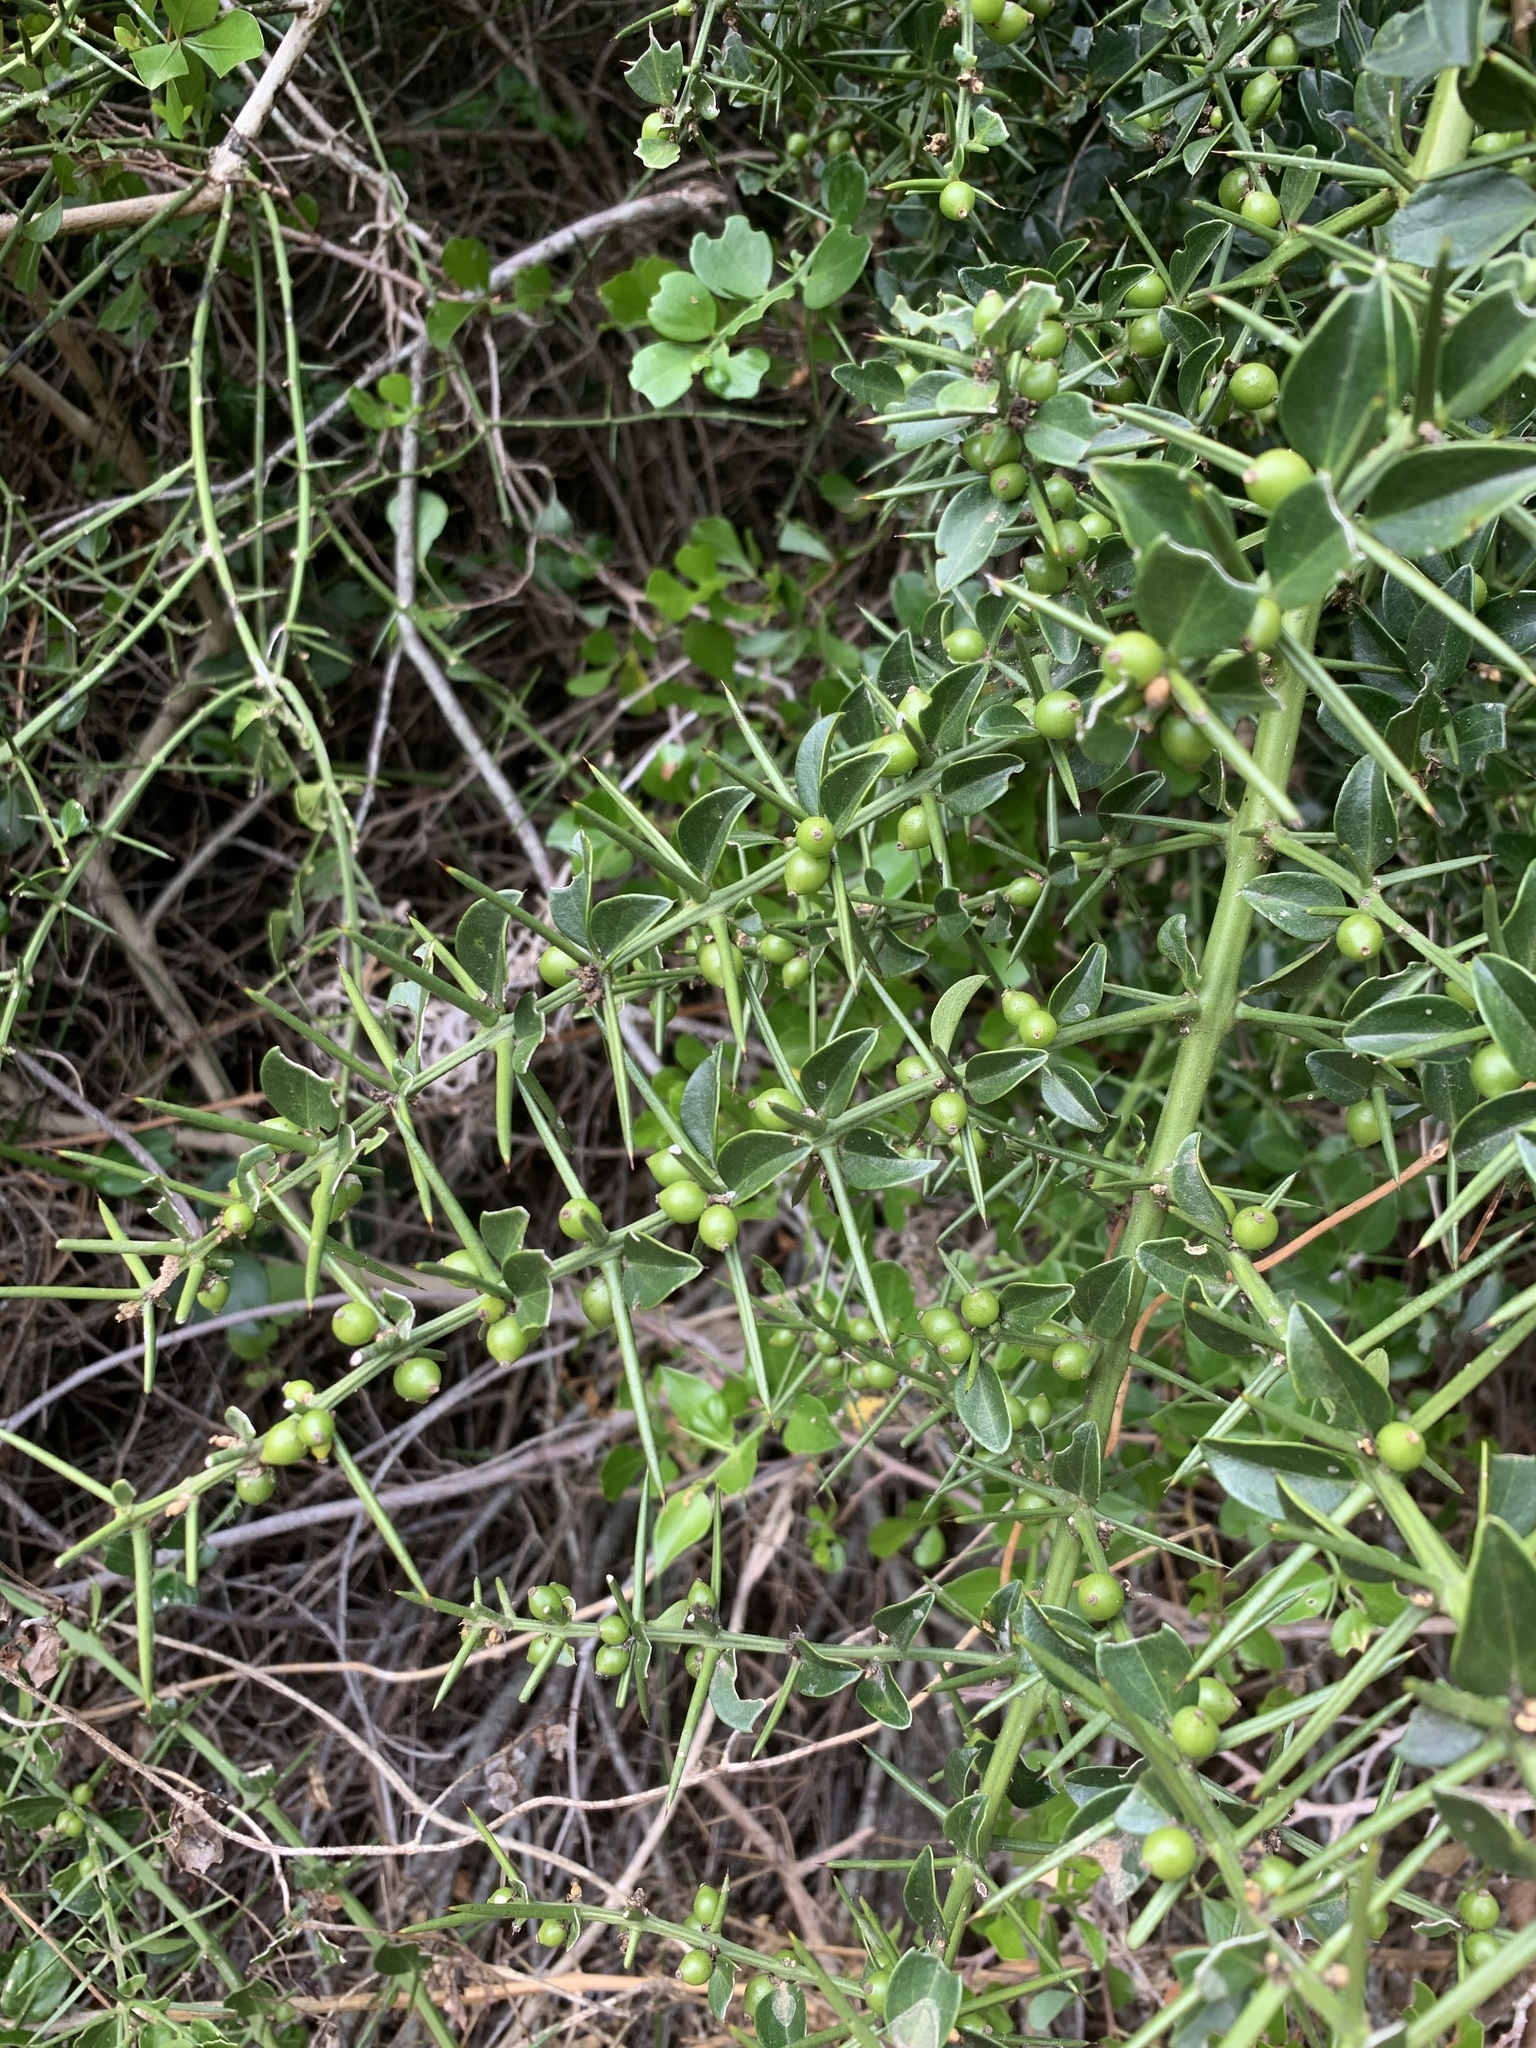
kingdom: Plantae
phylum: Tracheophyta
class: Magnoliopsida
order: Brassicales
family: Salvadoraceae
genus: Azima
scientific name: Azima tetracantha
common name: Needle bush
